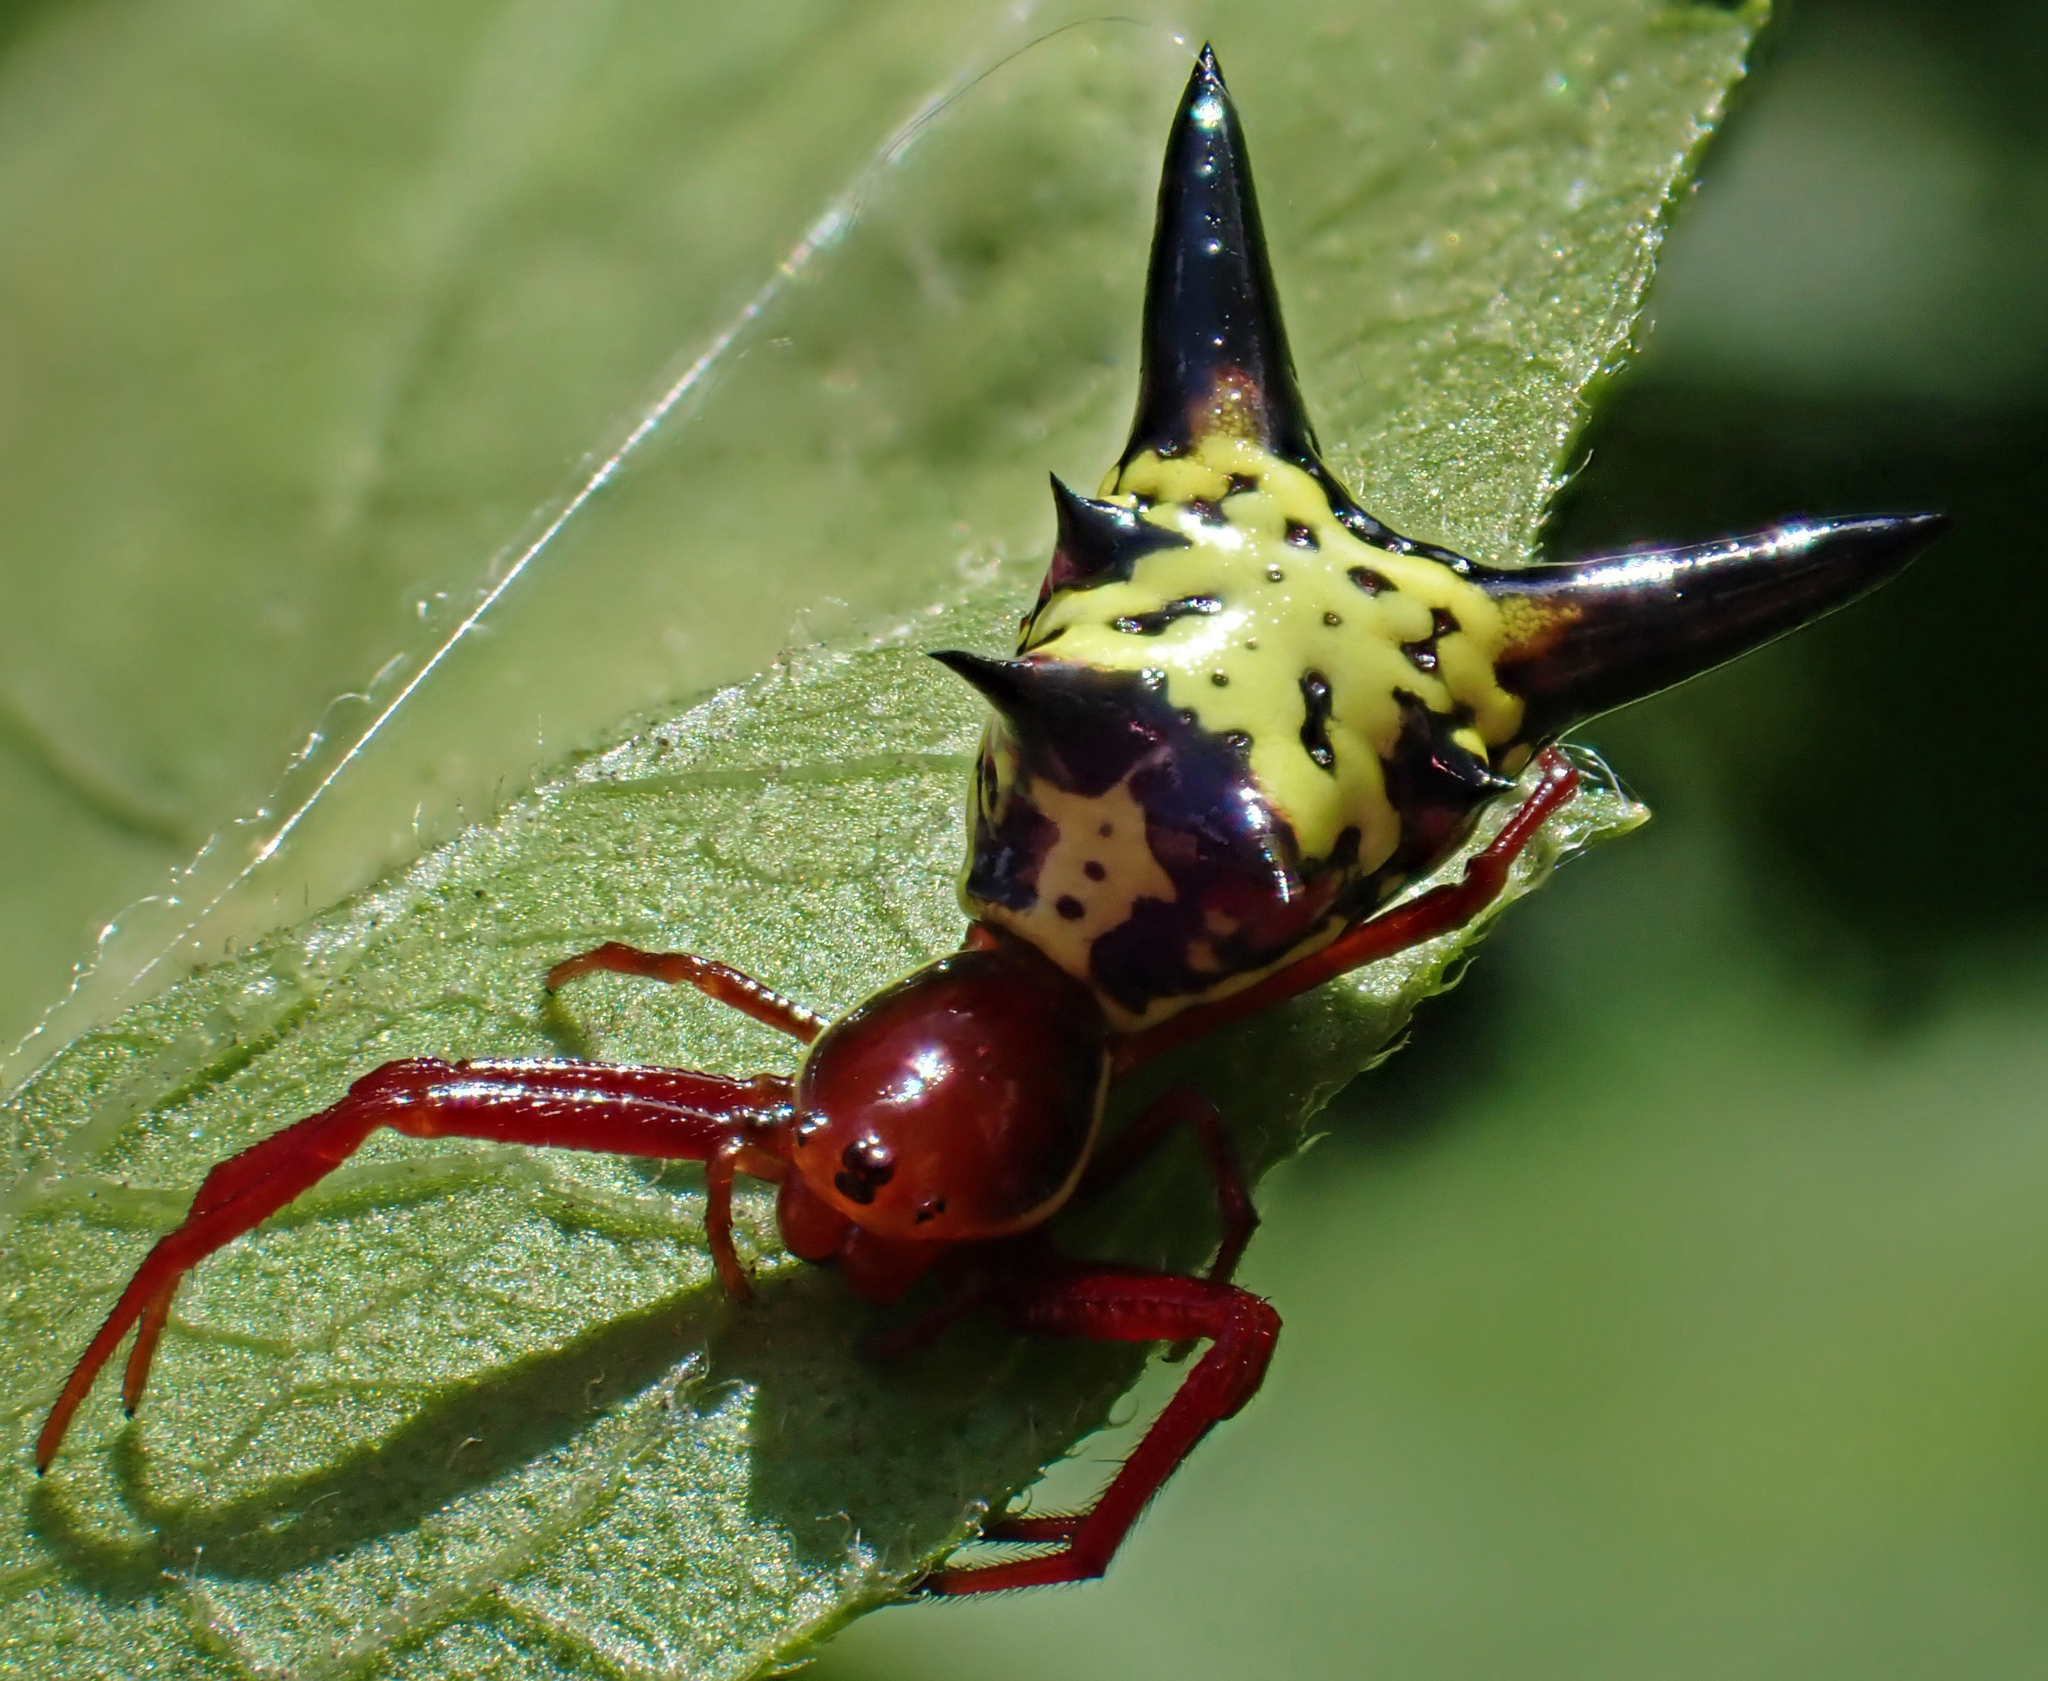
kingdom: Animalia
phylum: Arthropoda
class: Arachnida
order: Araneae
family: Araneidae
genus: Micrathena
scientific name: Micrathena sagittata
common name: Orb weavers
